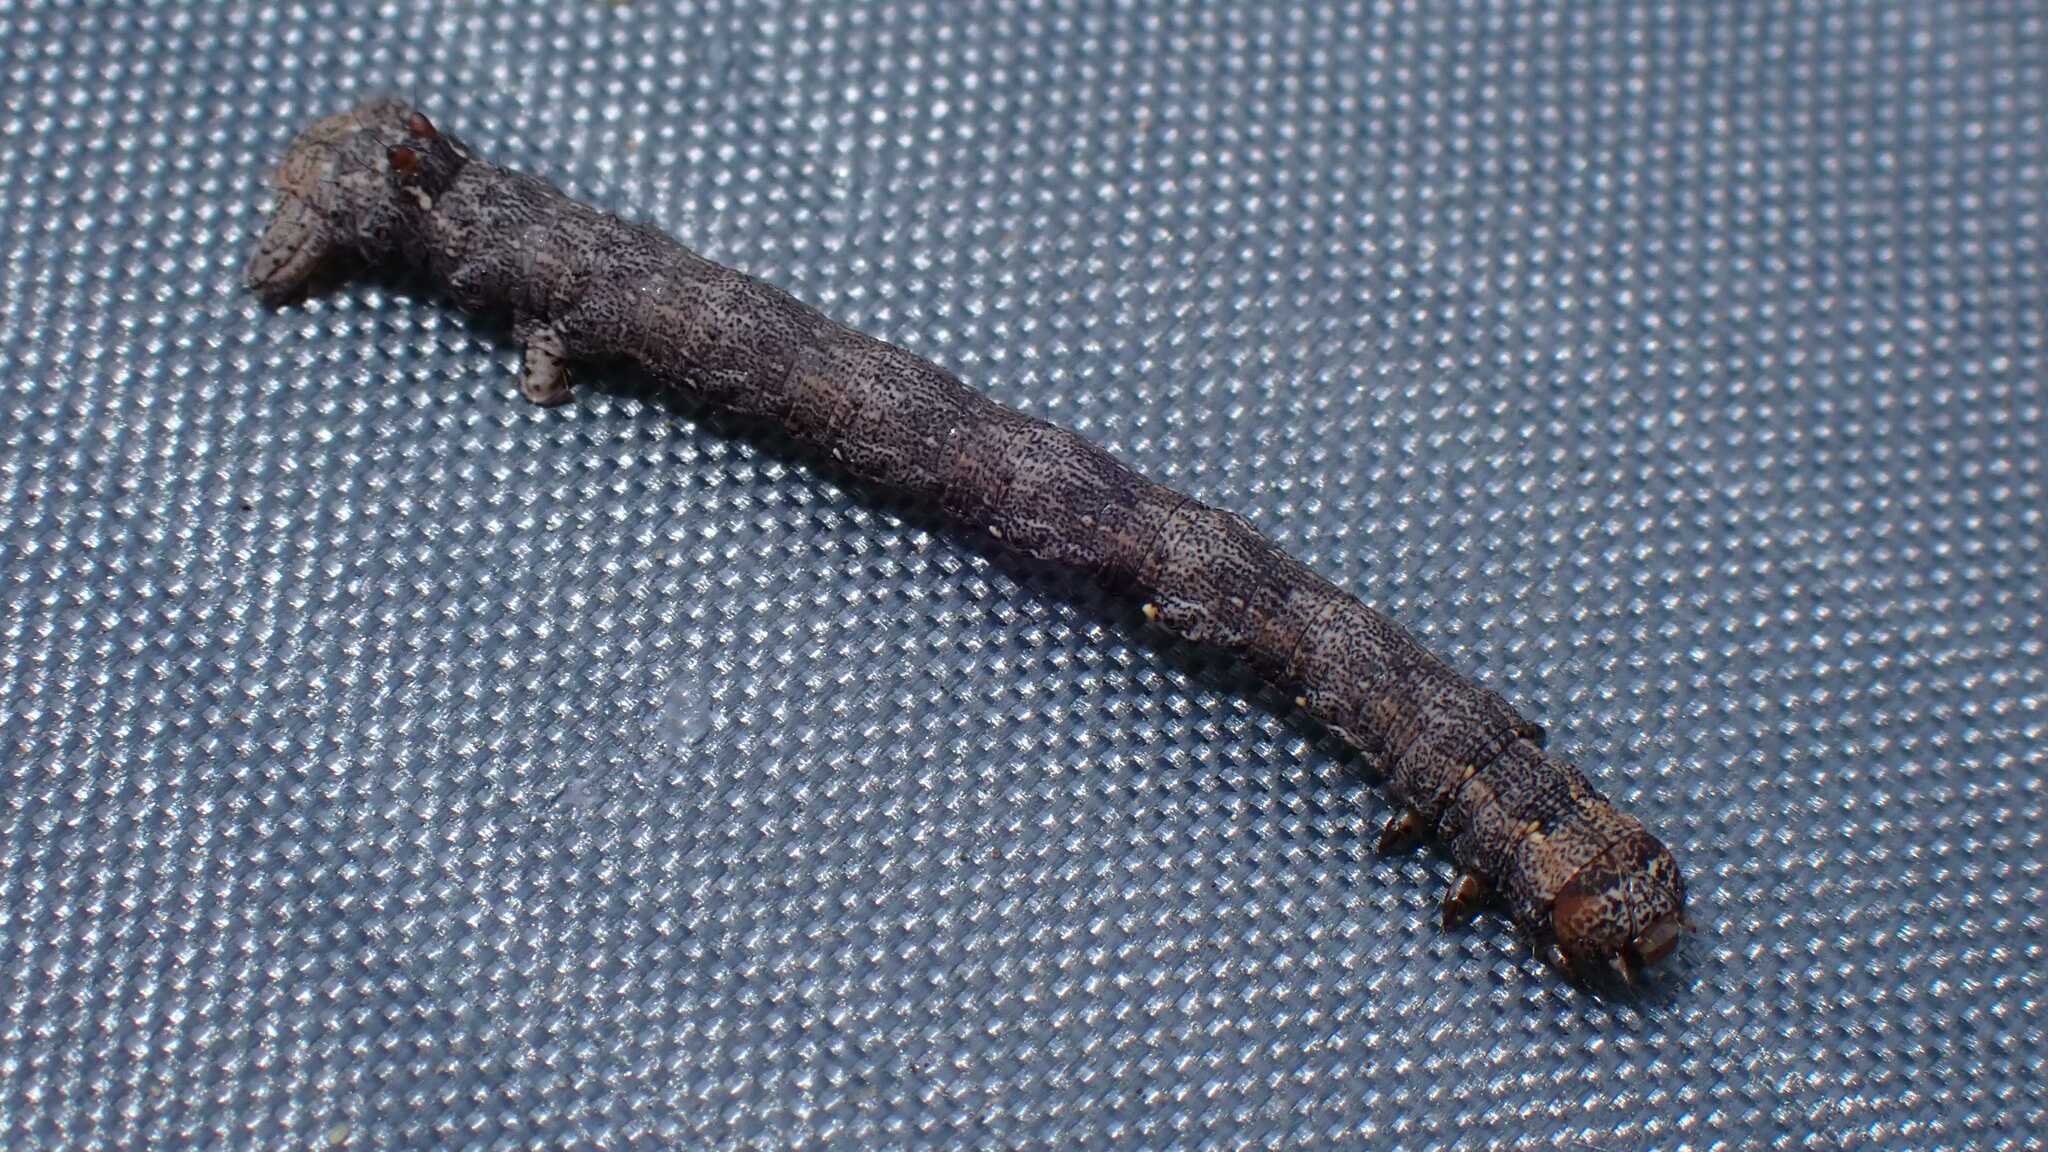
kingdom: Animalia
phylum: Arthropoda
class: Insecta
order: Lepidoptera
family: Geometridae
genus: Colotois
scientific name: Colotois pennaria
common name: Feathered thorn
